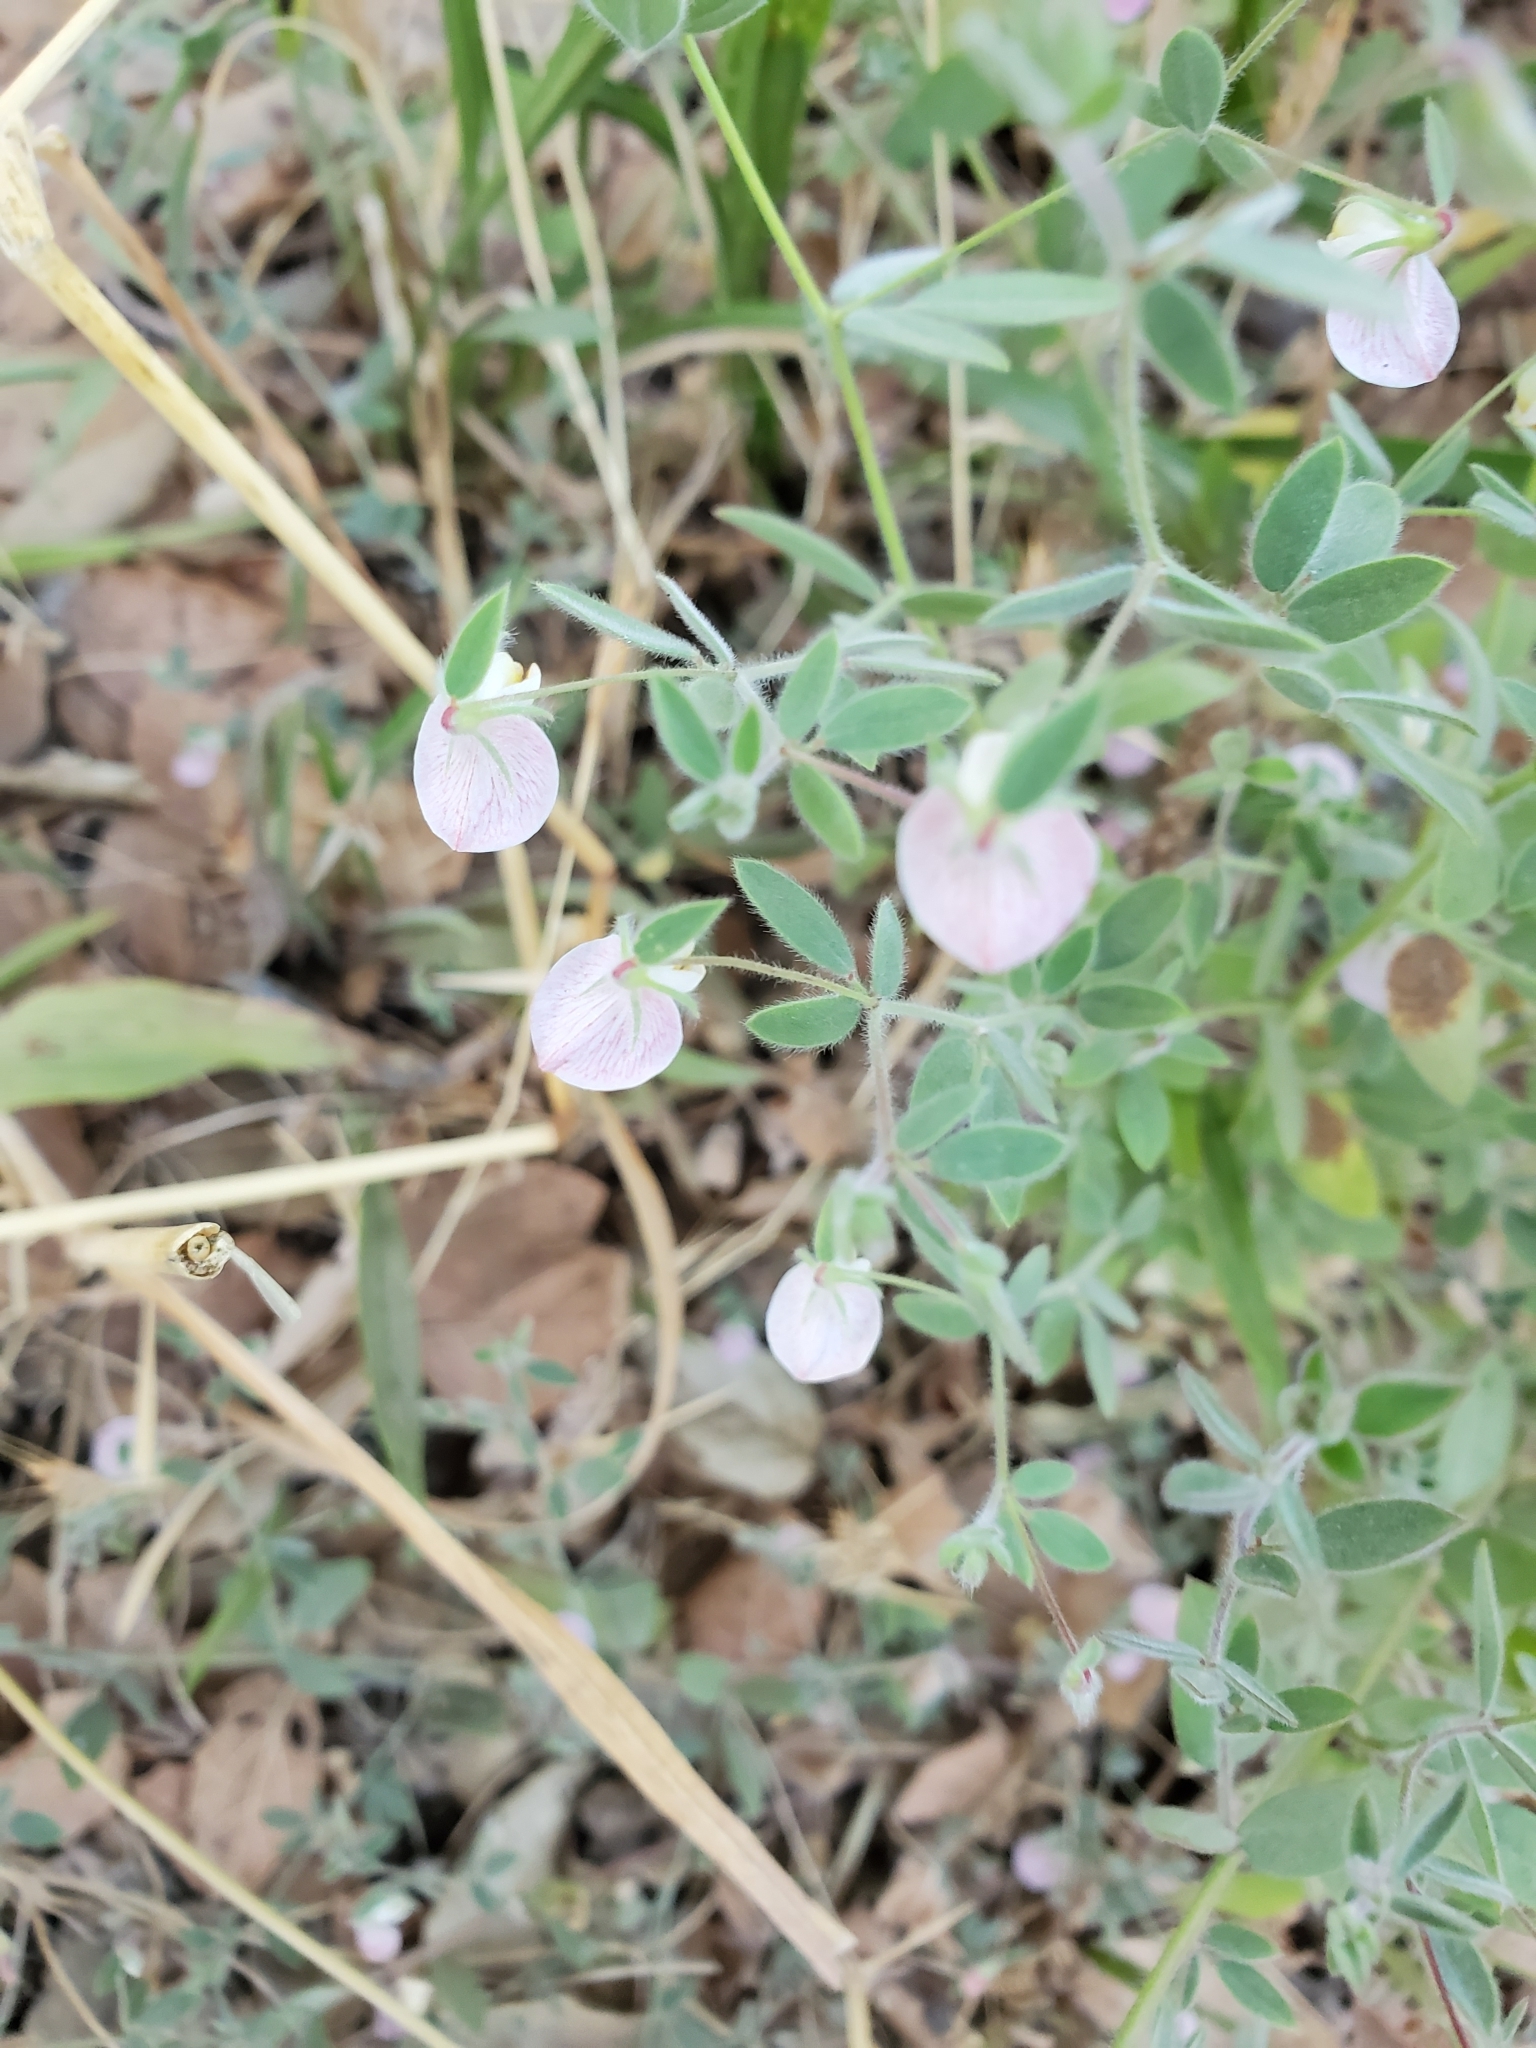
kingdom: Plantae
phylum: Tracheophyta
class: Magnoliopsida
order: Fabales
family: Fabaceae
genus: Acmispon
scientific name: Acmispon americanus
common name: American bird's-foot trefoil
